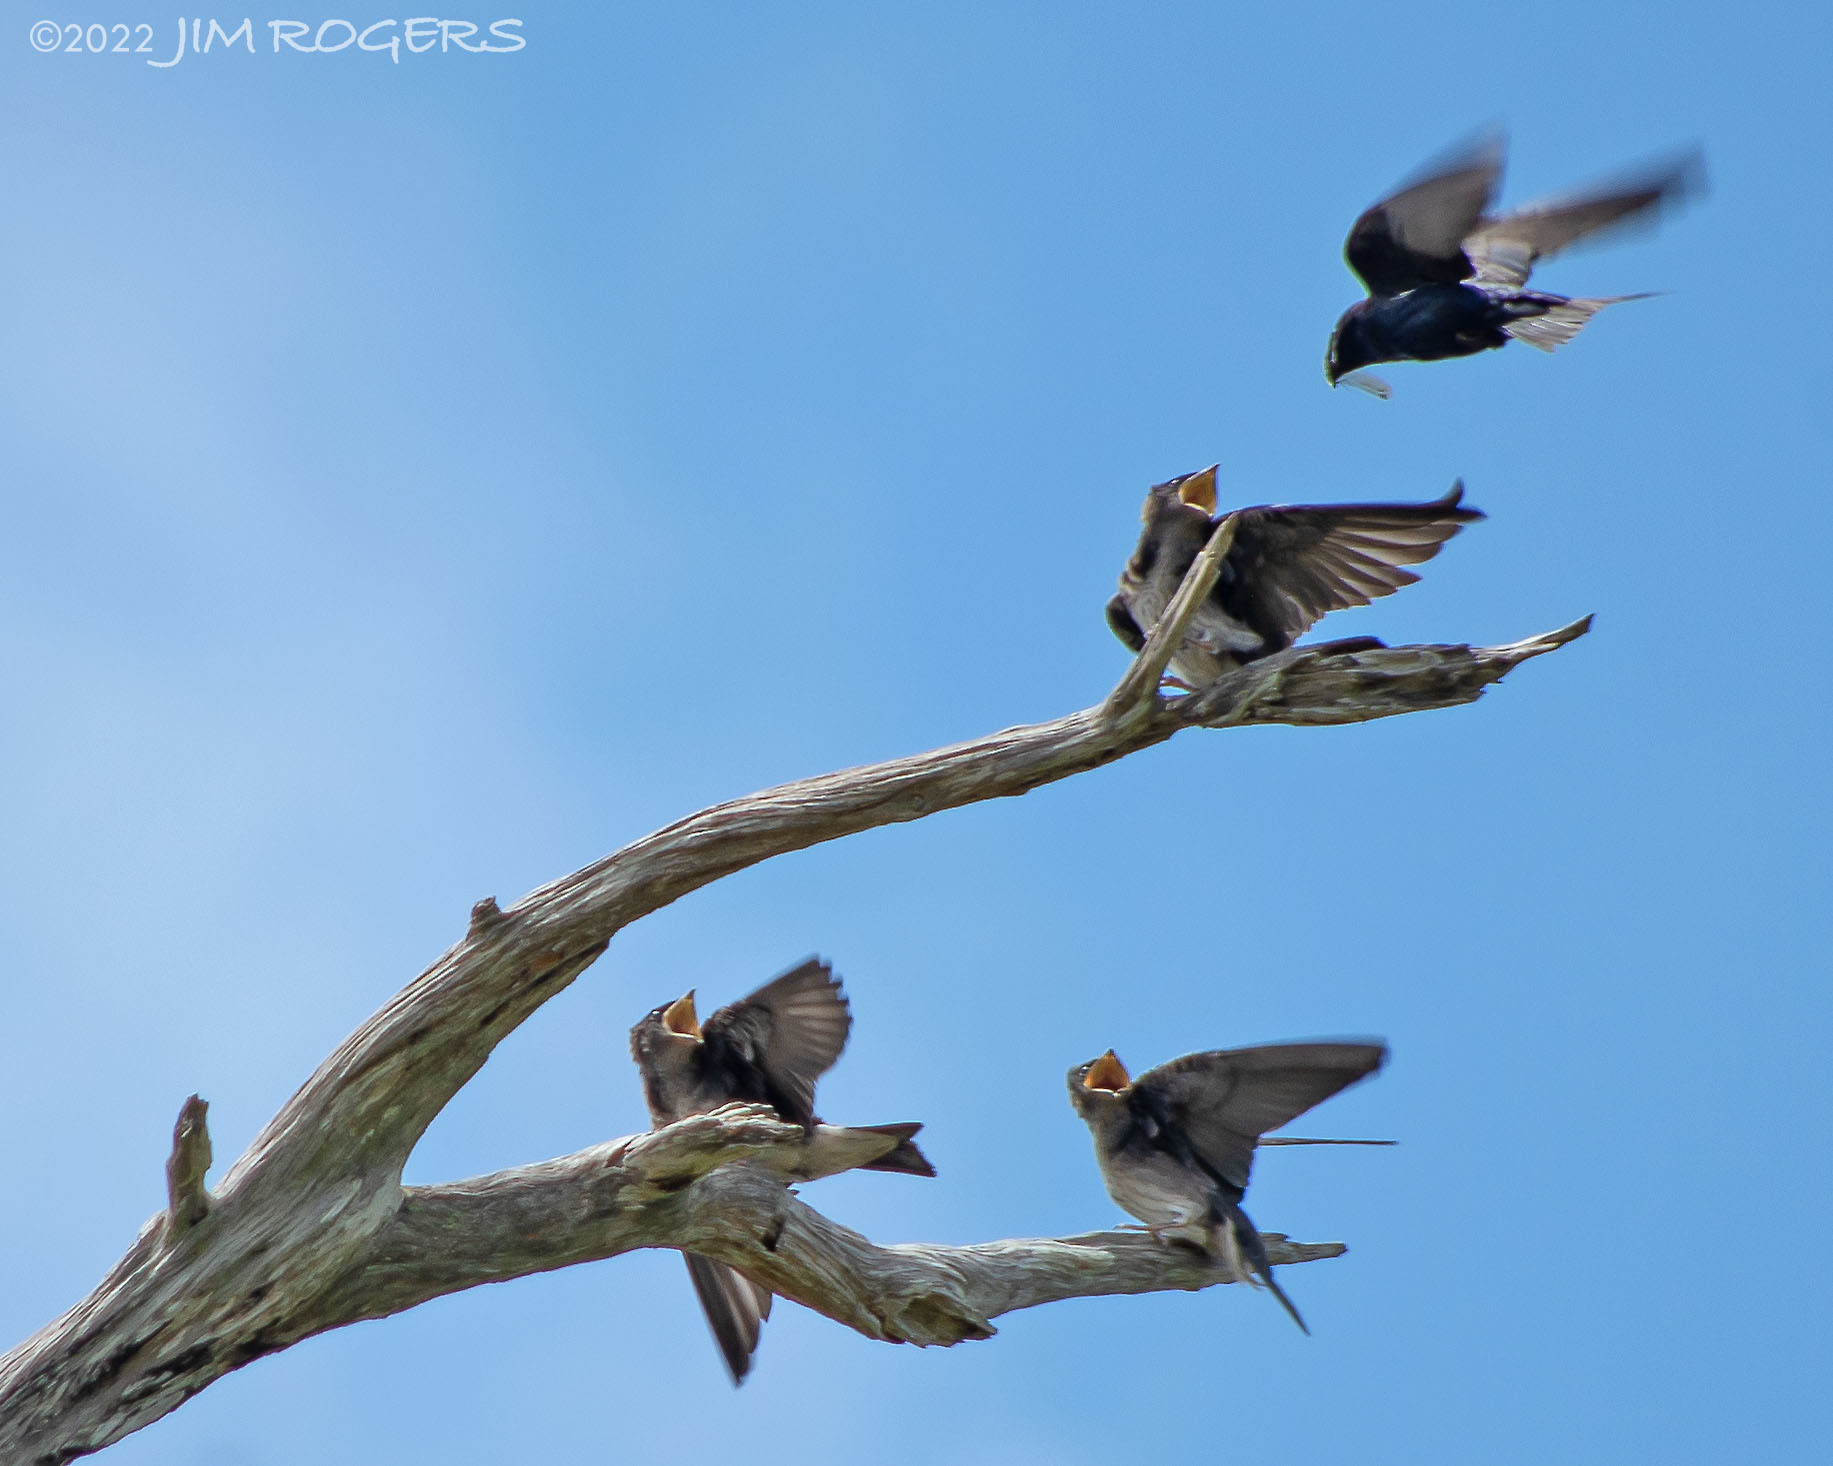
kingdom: Animalia
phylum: Chordata
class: Aves
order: Passeriformes
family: Hirundinidae
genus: Progne
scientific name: Progne subis
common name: Purple martin
